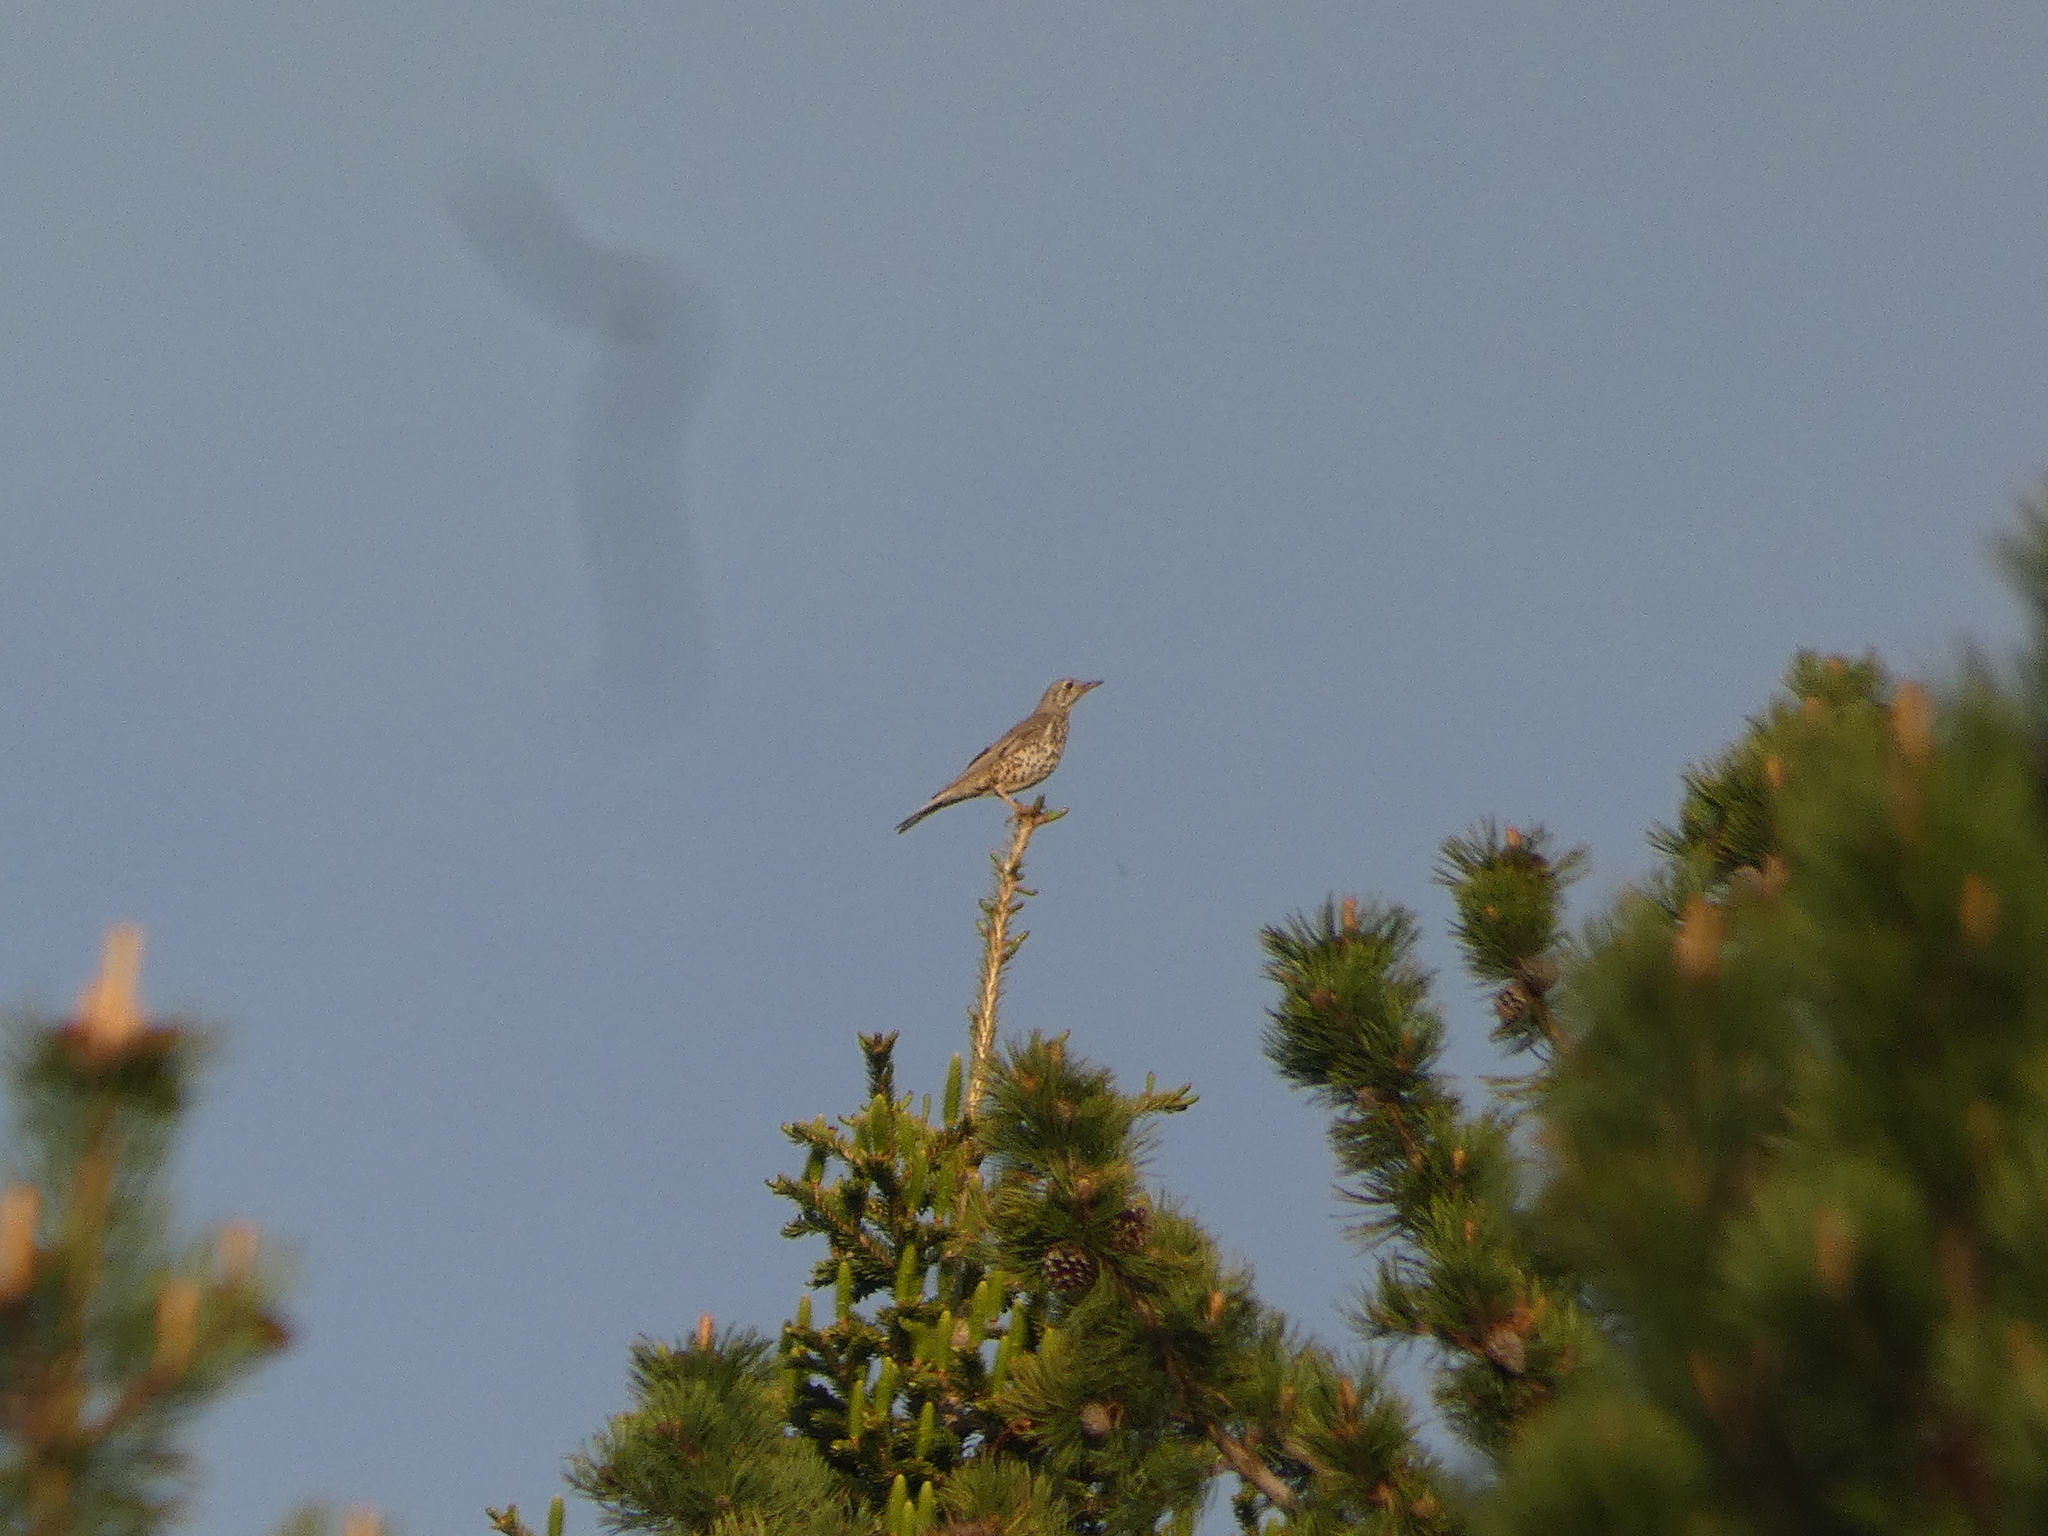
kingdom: Animalia
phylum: Chordata
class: Aves
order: Passeriformes
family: Turdidae
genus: Turdus
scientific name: Turdus viscivorus
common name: Mistle thrush
